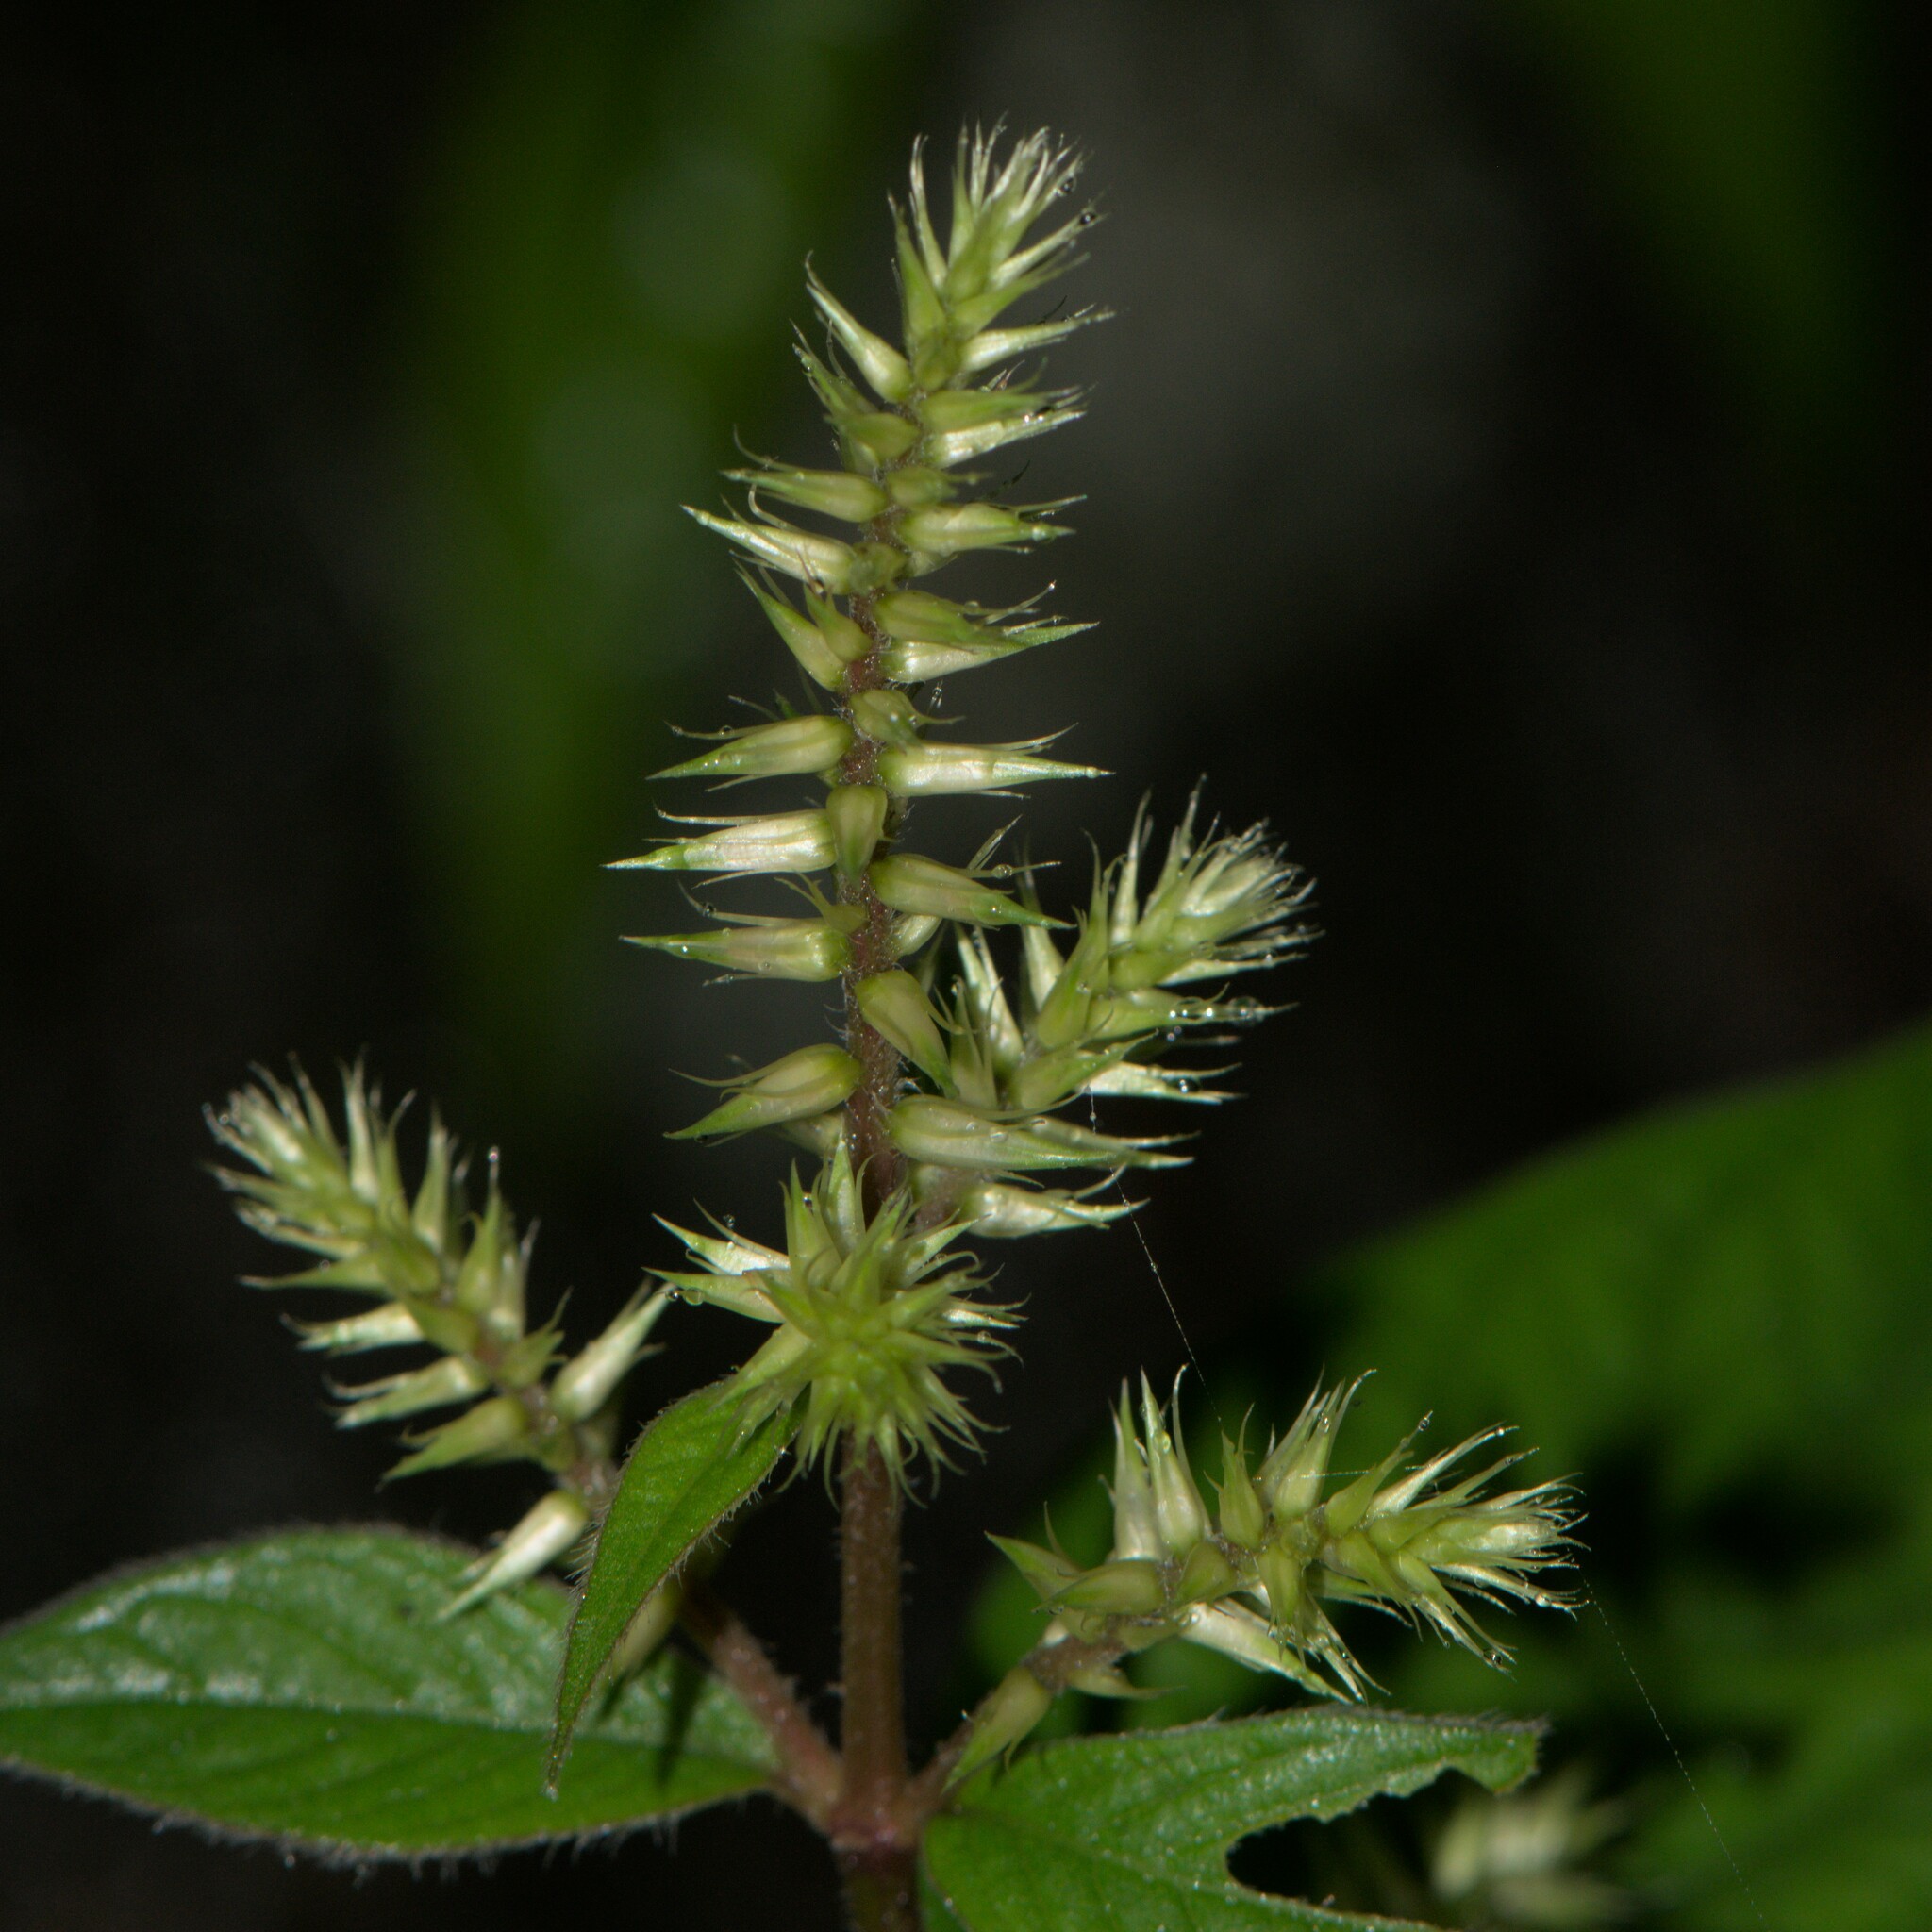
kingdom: Plantae
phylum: Tracheophyta
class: Magnoliopsida
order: Caryophyllales
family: Amaranthaceae
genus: Achyranthes
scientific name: Achyranthes aspera
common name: Devil's horsewhip
